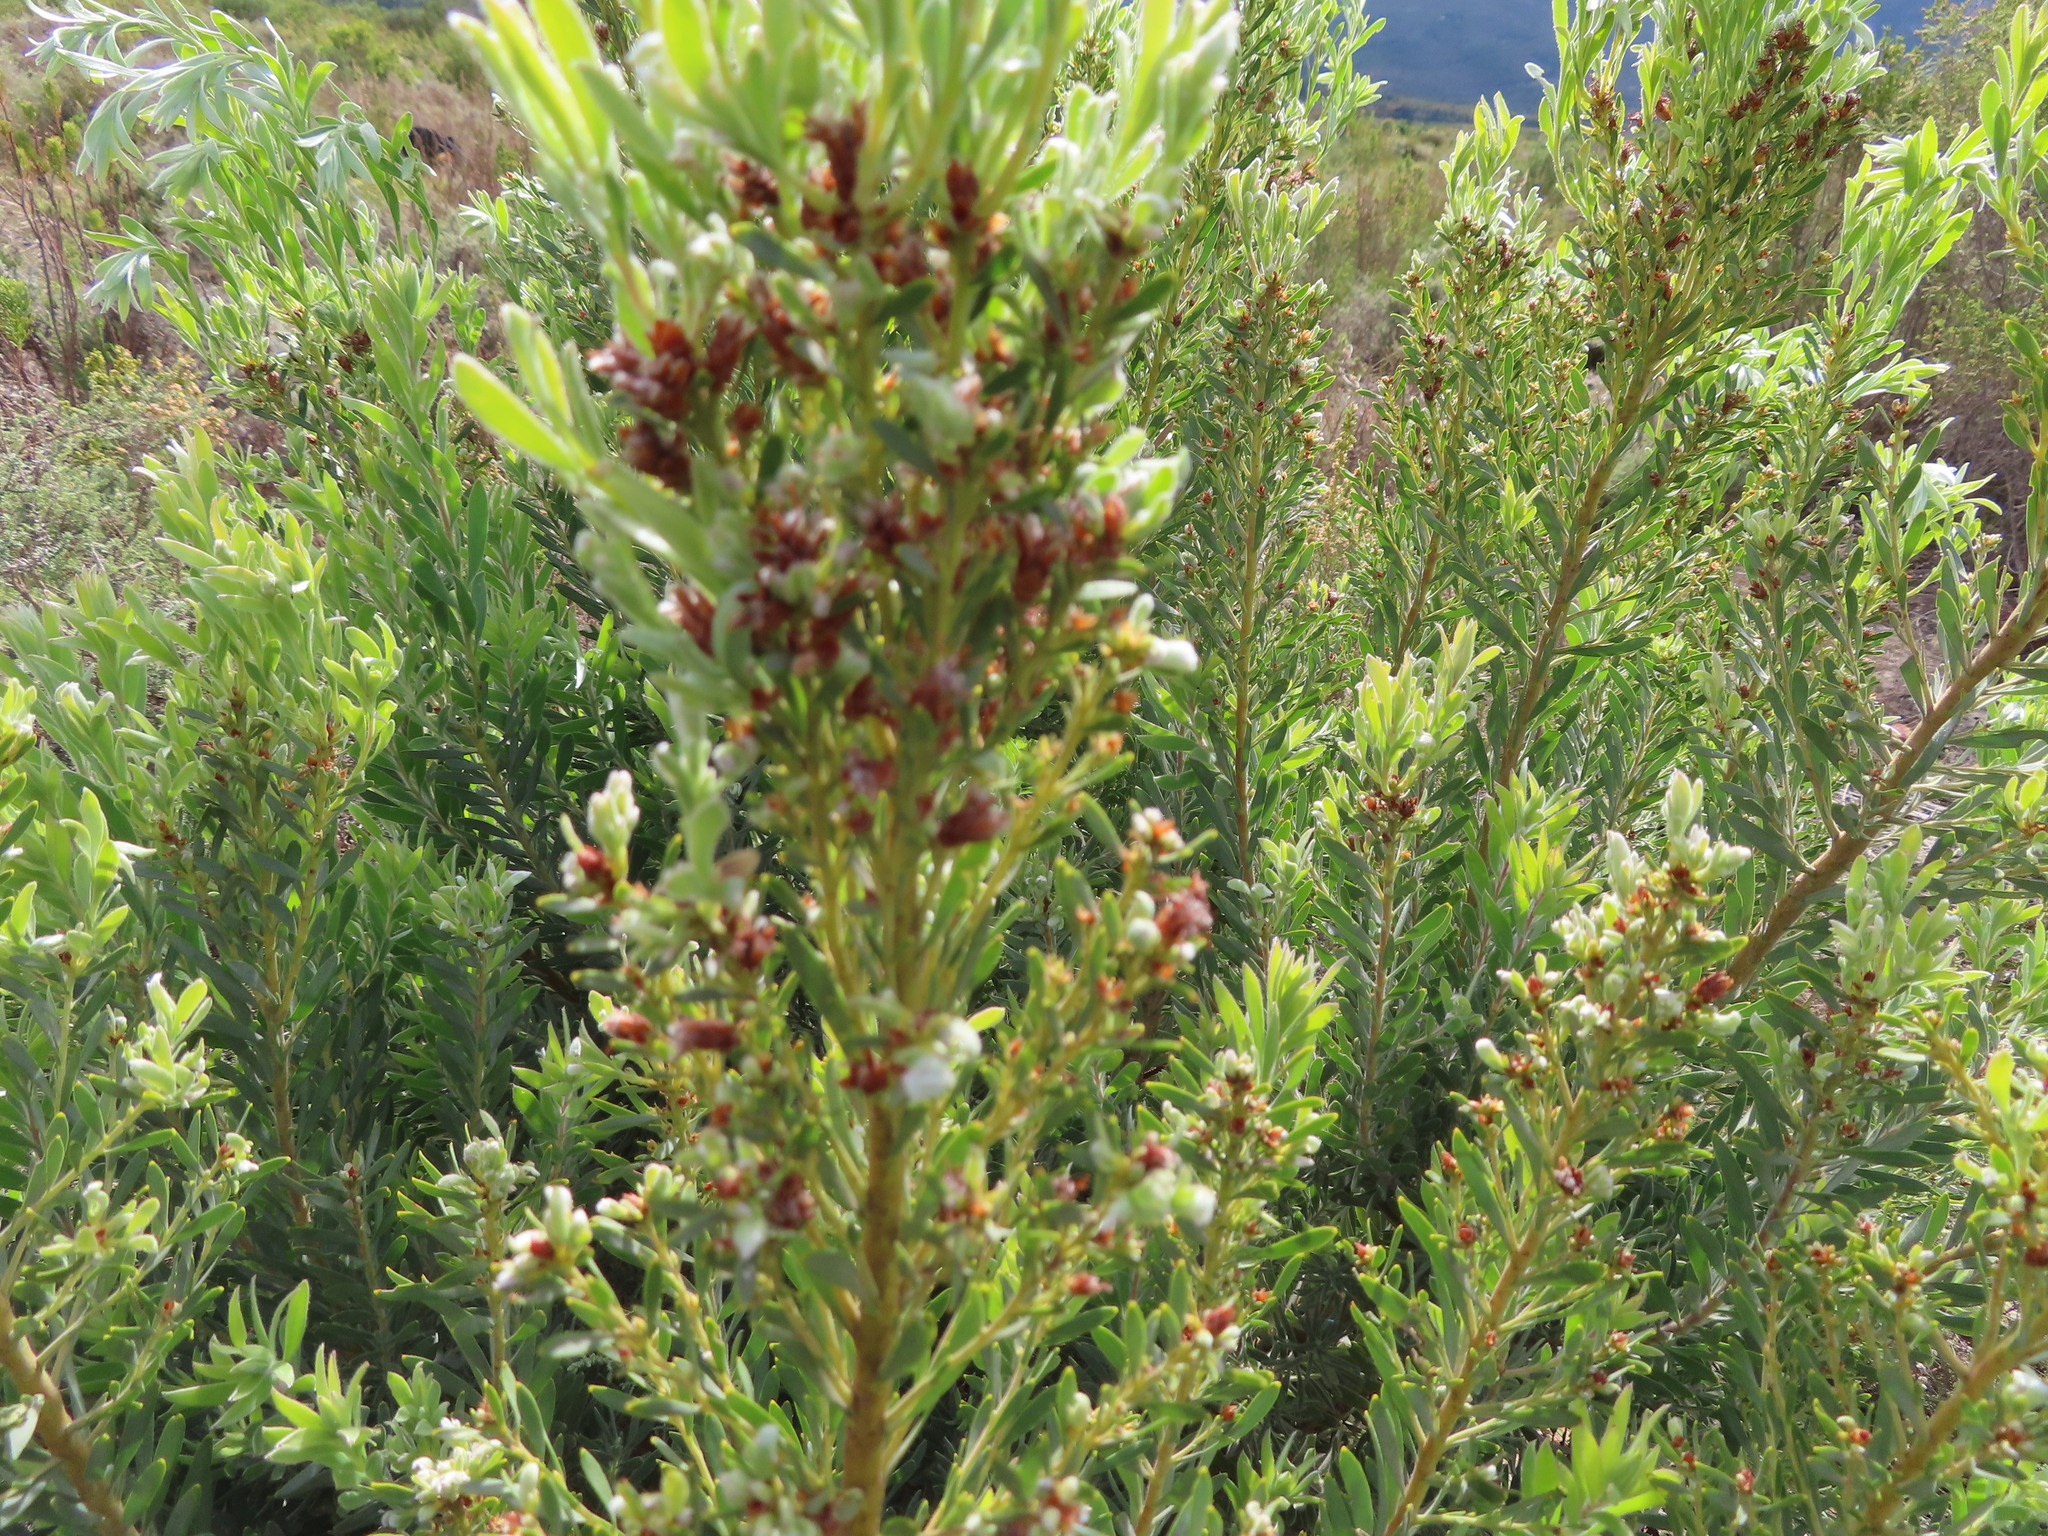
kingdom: Plantae
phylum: Tracheophyta
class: Magnoliopsida
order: Proteales
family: Proteaceae
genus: Leucadendron
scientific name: Leucadendron rubrum
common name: Spinning top
